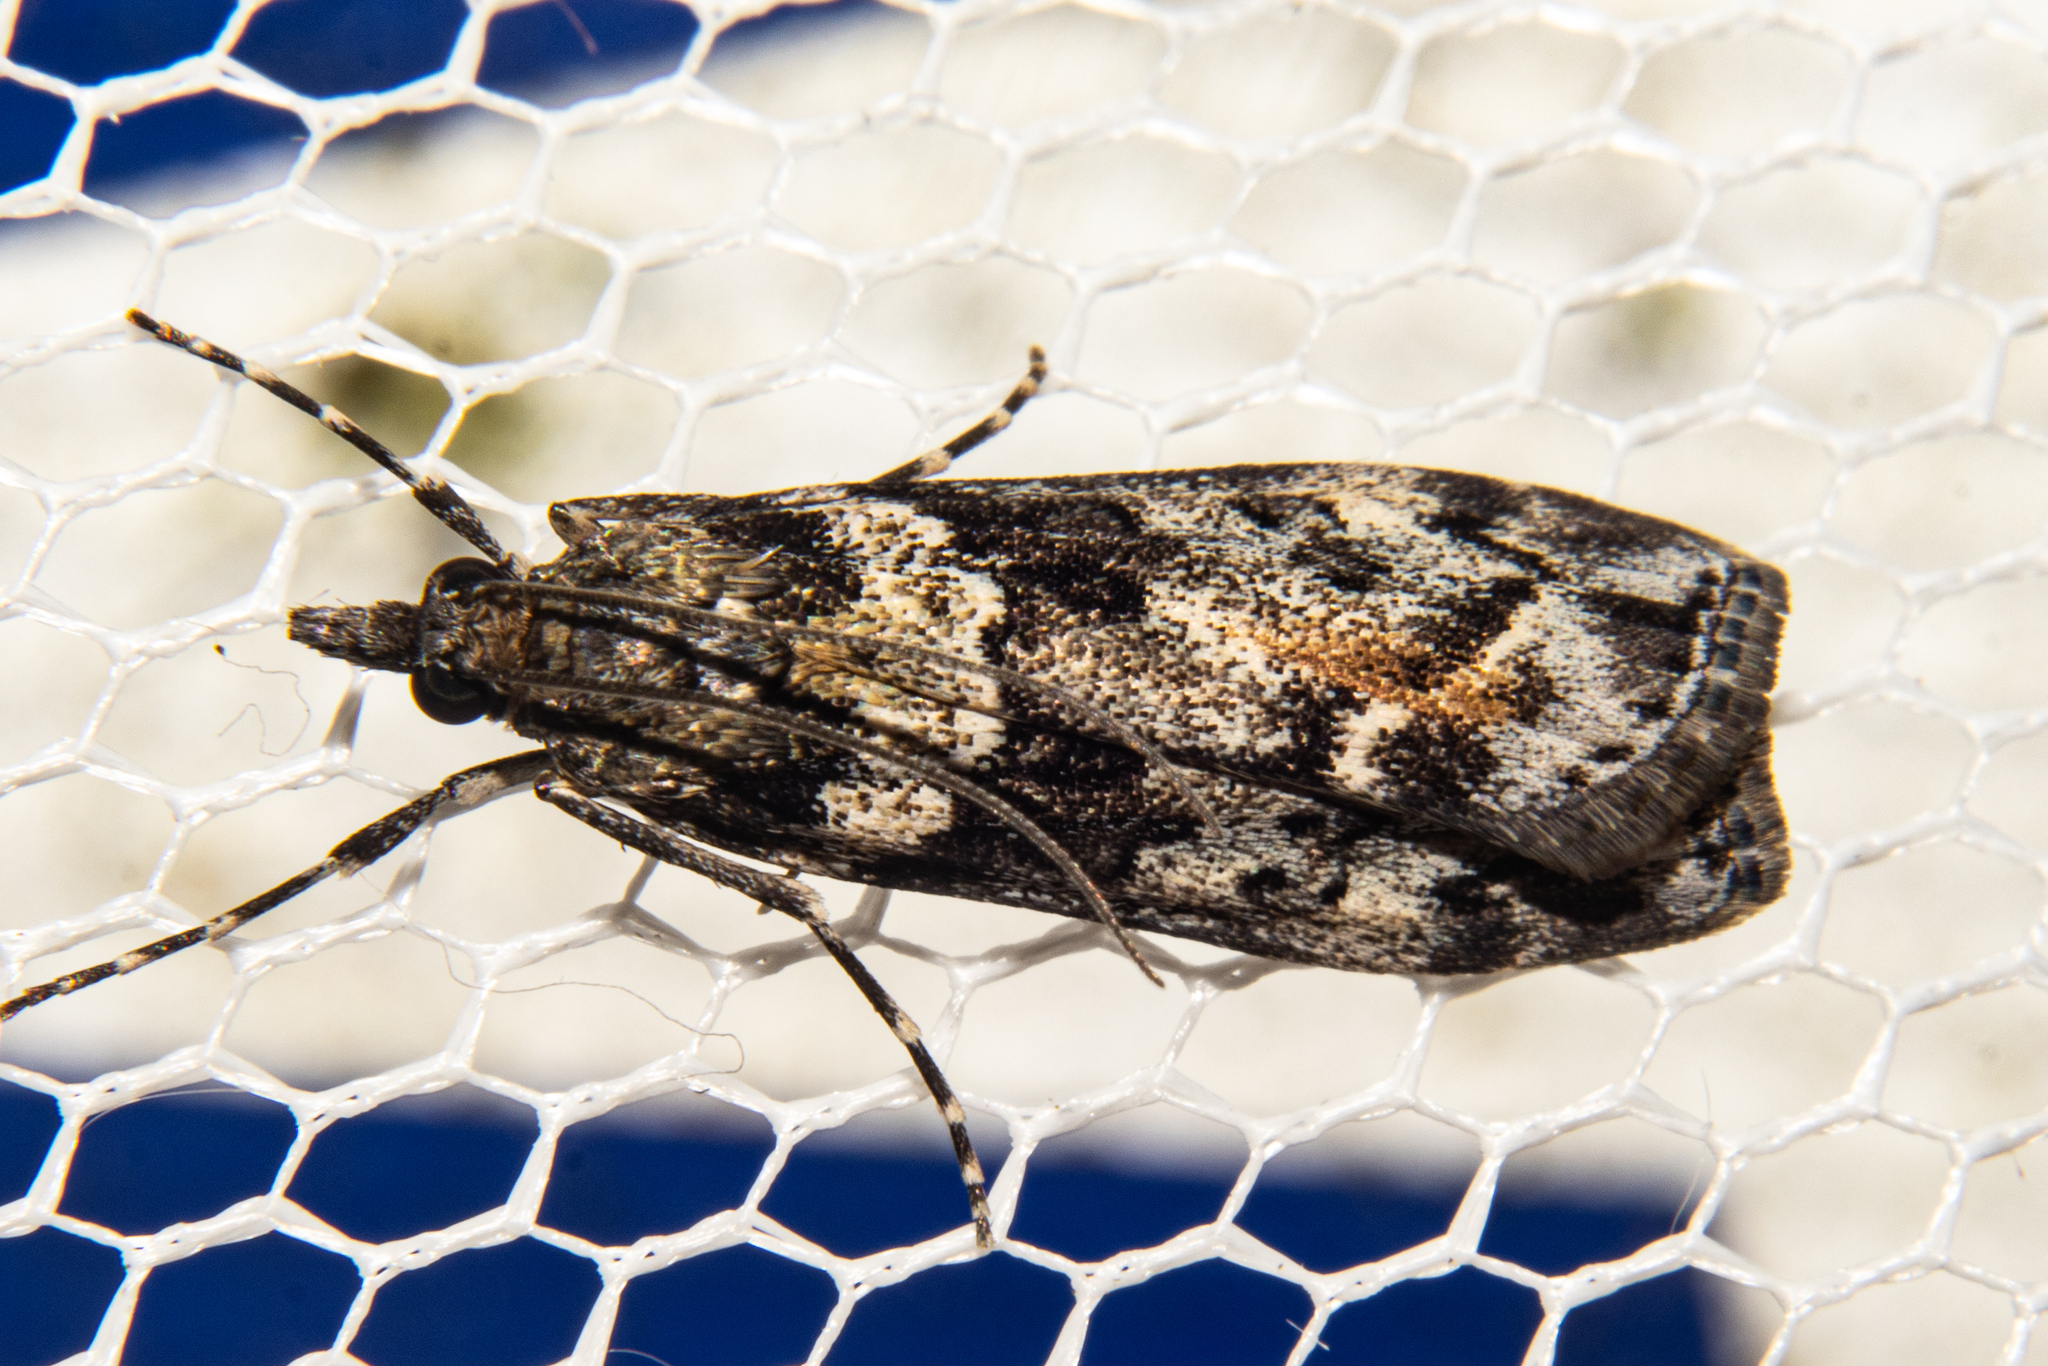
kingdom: Animalia
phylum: Arthropoda
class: Insecta
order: Lepidoptera
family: Crambidae
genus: Eudonia
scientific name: Eudonia submarginalis
